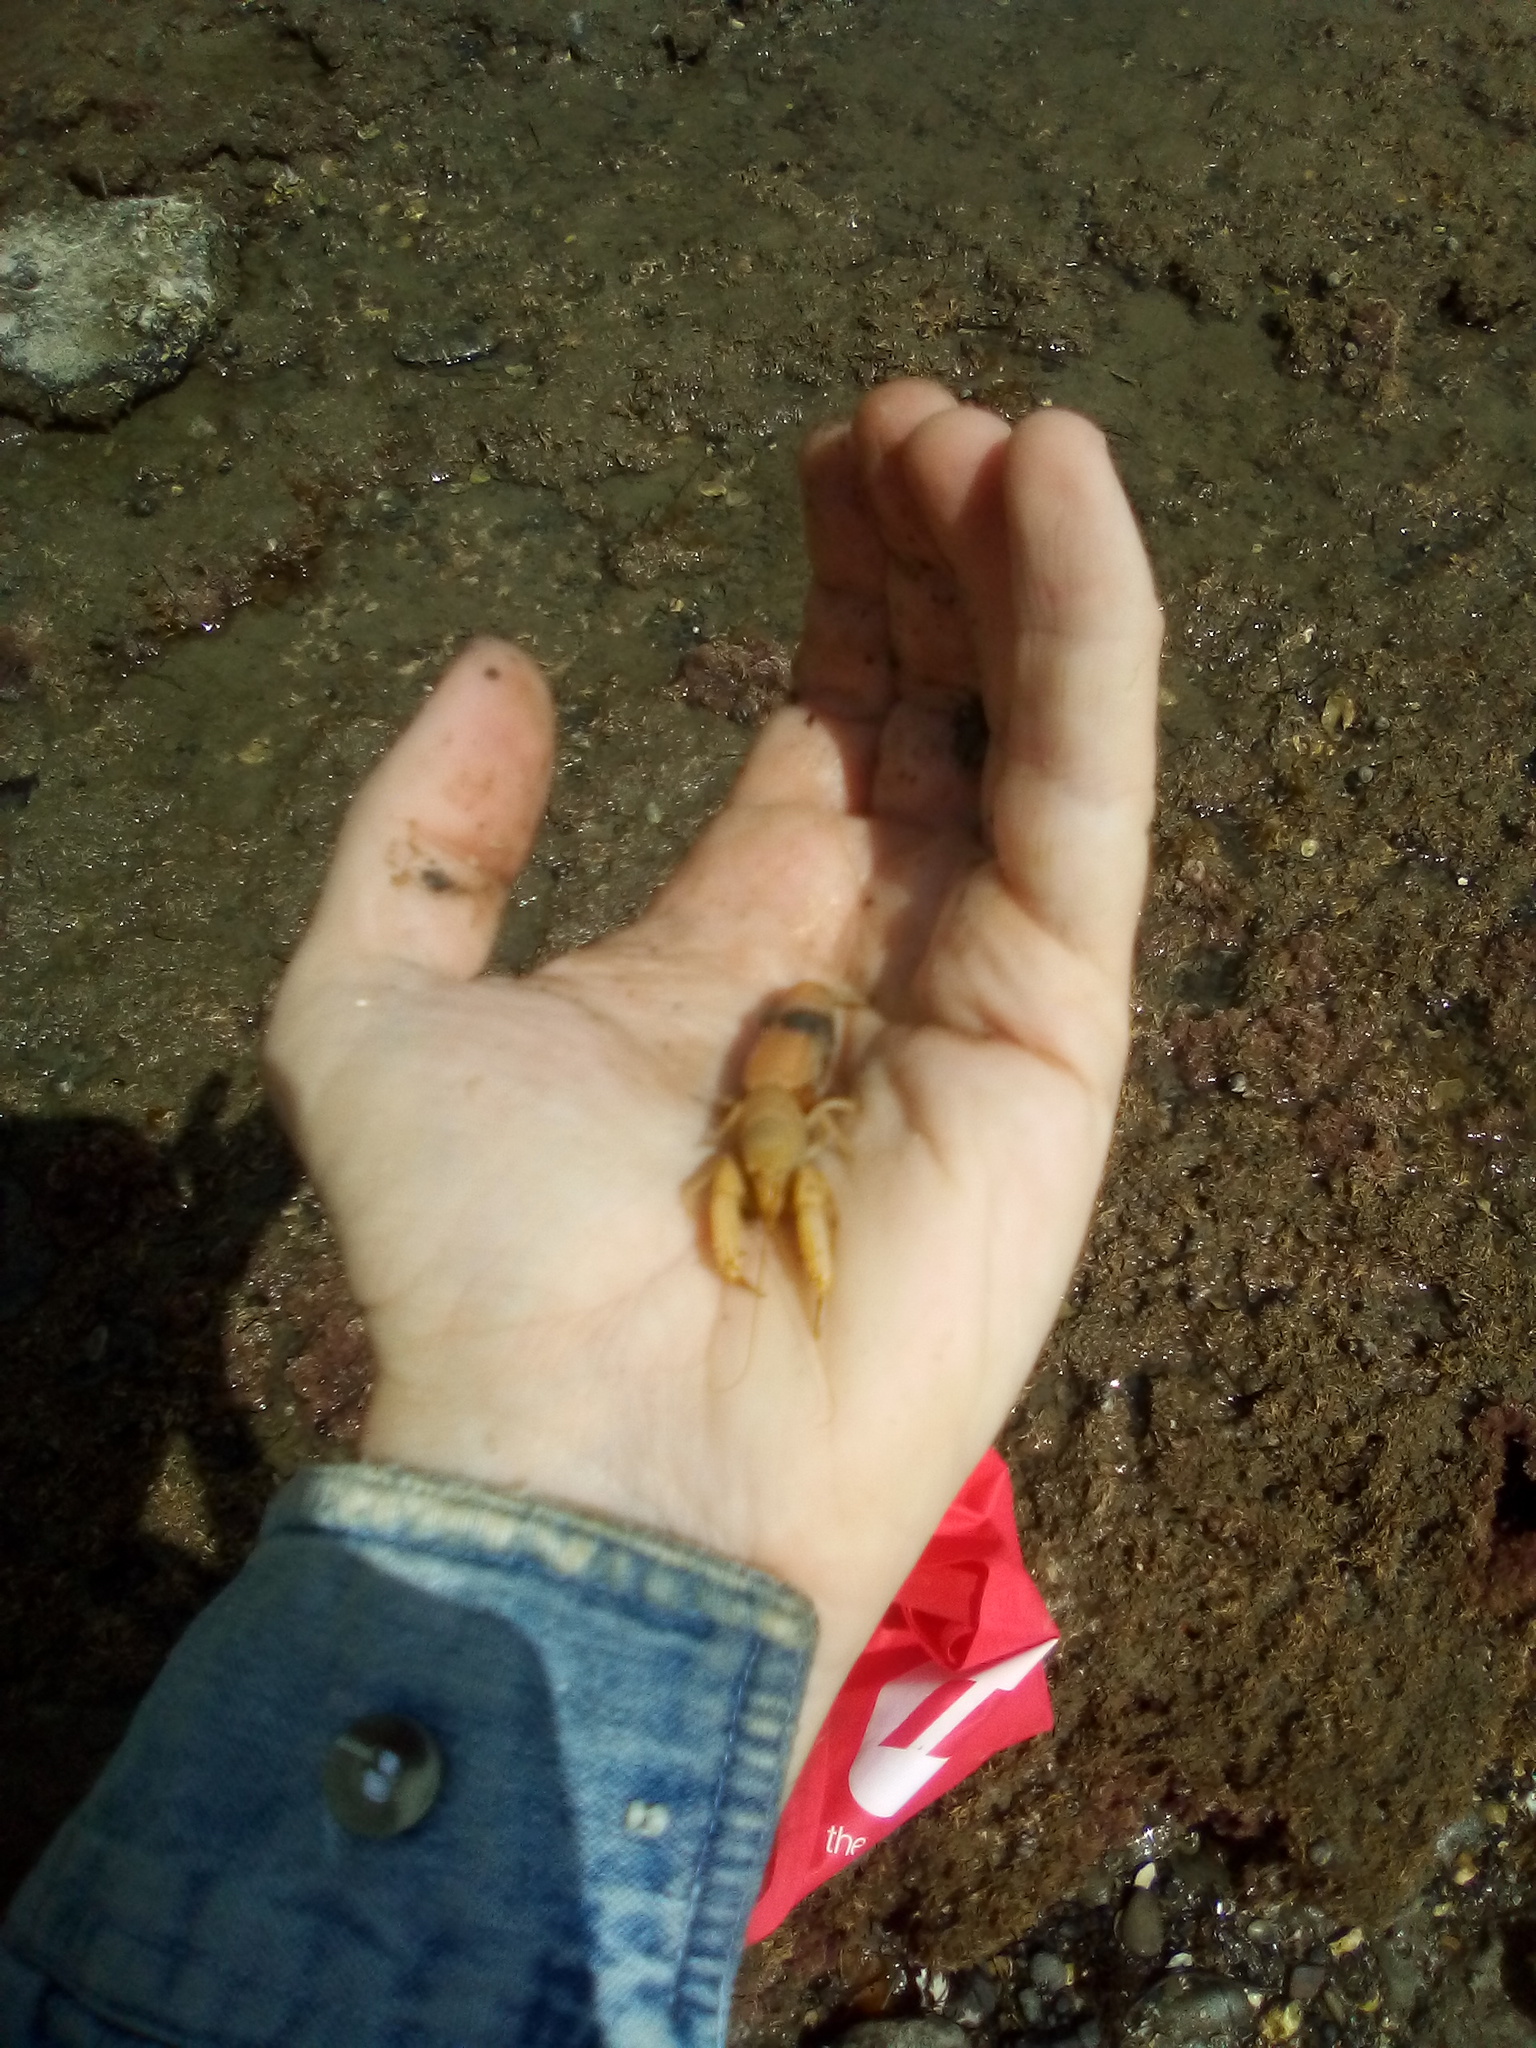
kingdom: Animalia
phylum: Arthropoda
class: Malacostraca
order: Decapoda
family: Upogebiidae
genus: Acutigebia
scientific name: Acutigebia danai
